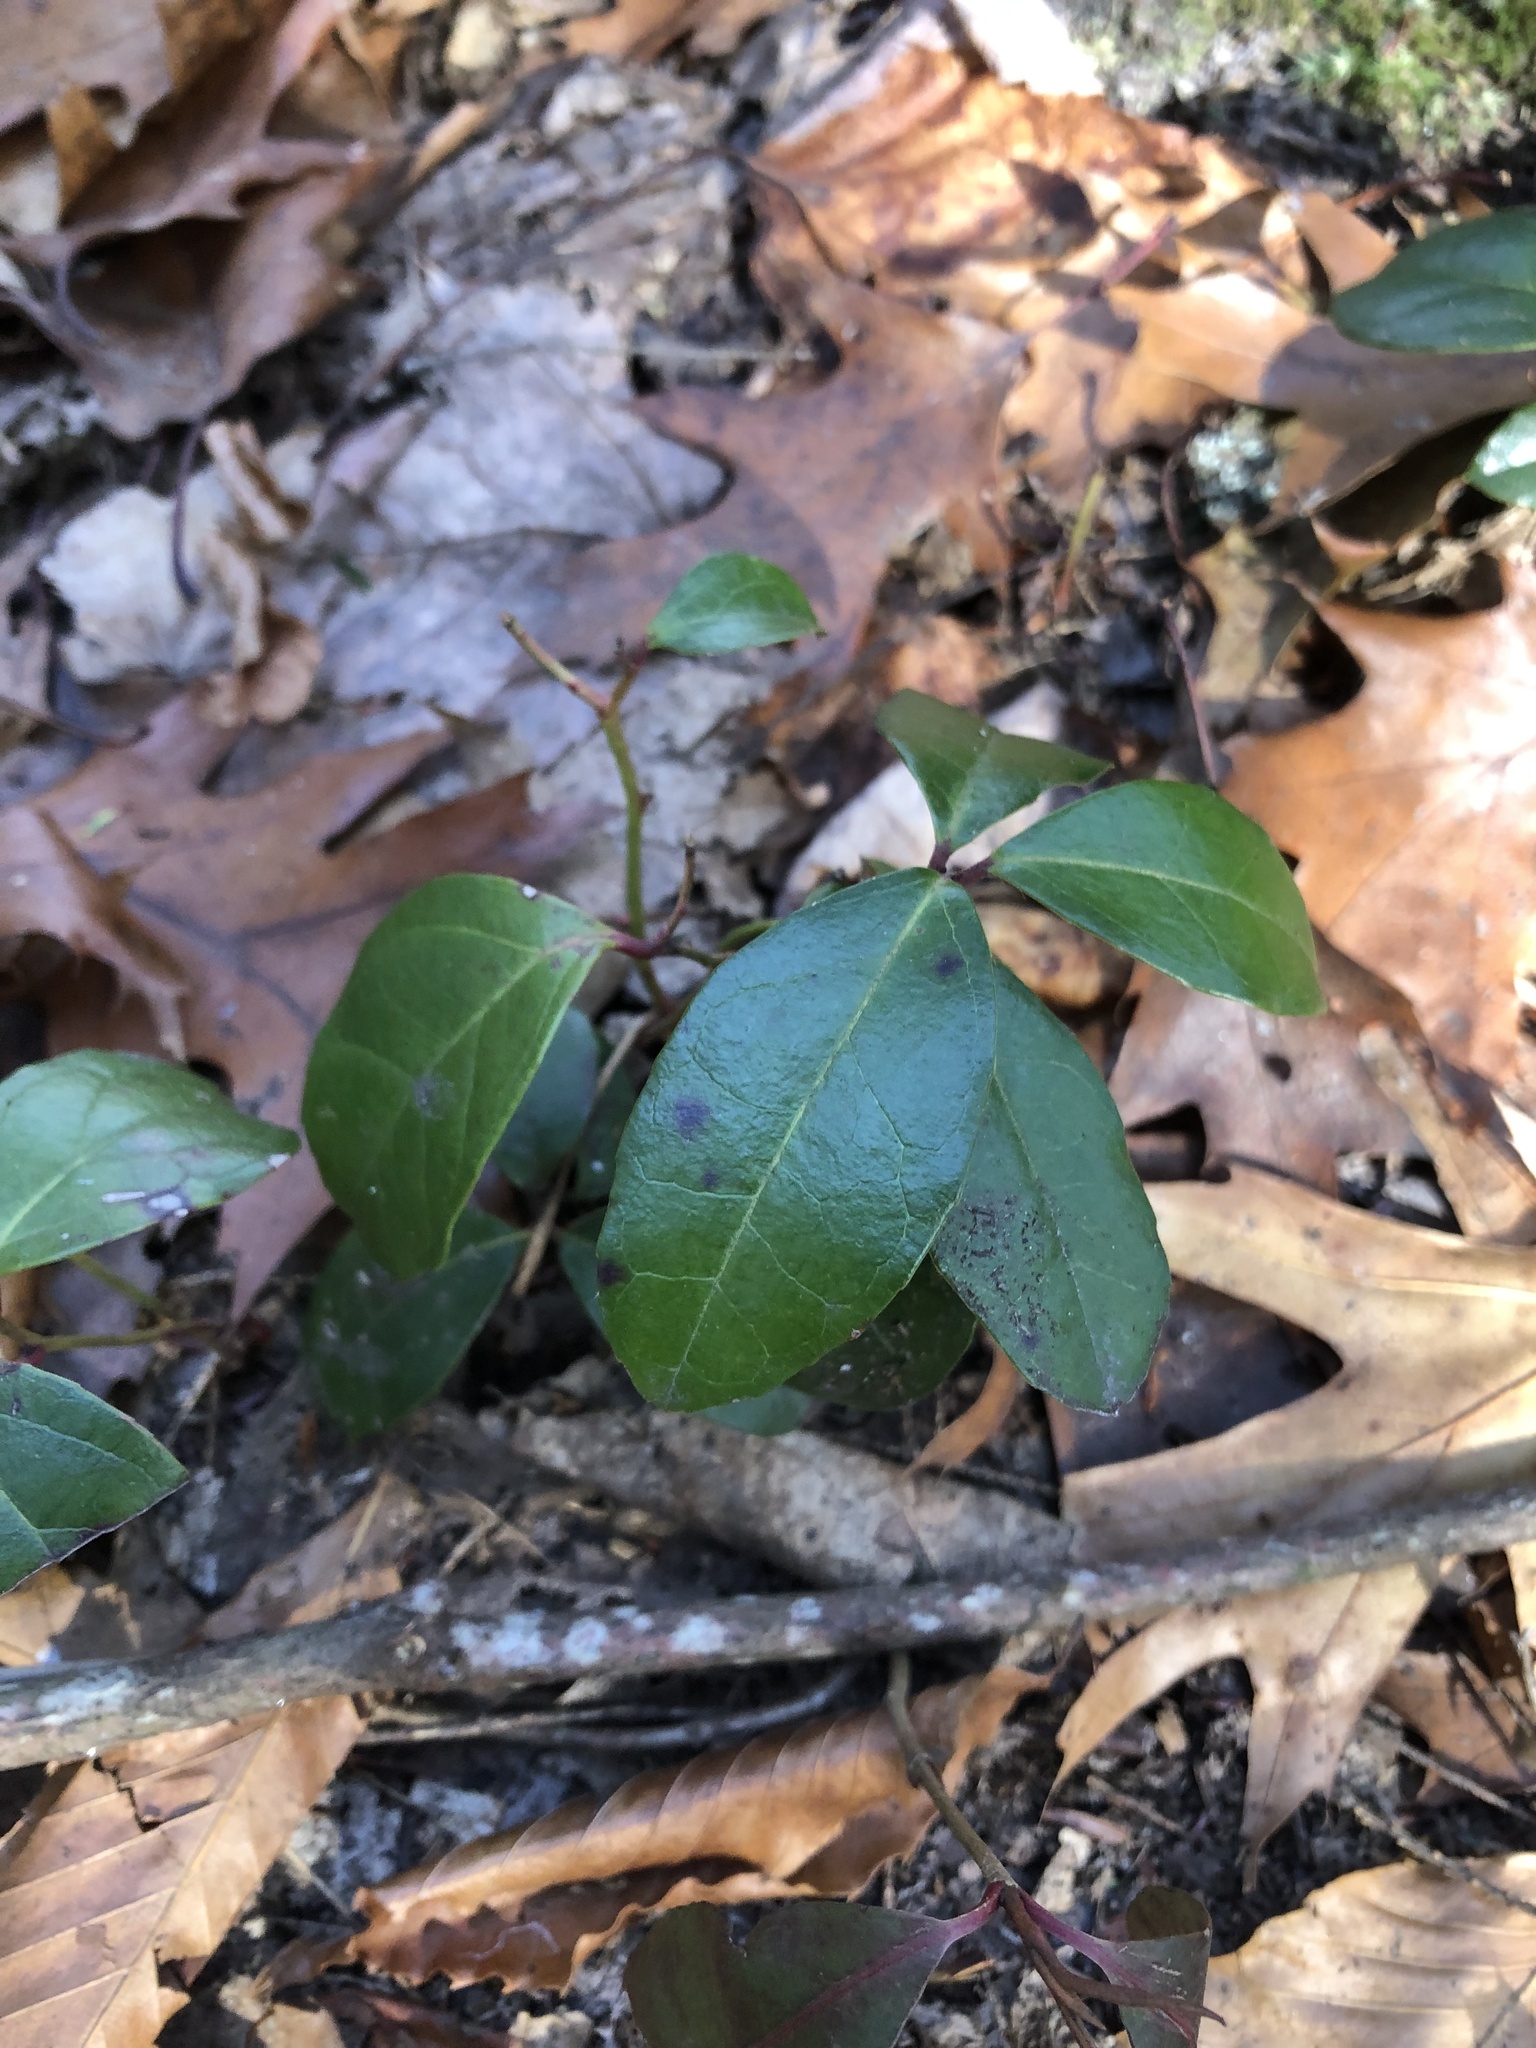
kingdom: Plantae
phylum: Tracheophyta
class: Magnoliopsida
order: Ericales
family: Ericaceae
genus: Gaultheria
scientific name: Gaultheria procumbens
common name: Checkerberry
